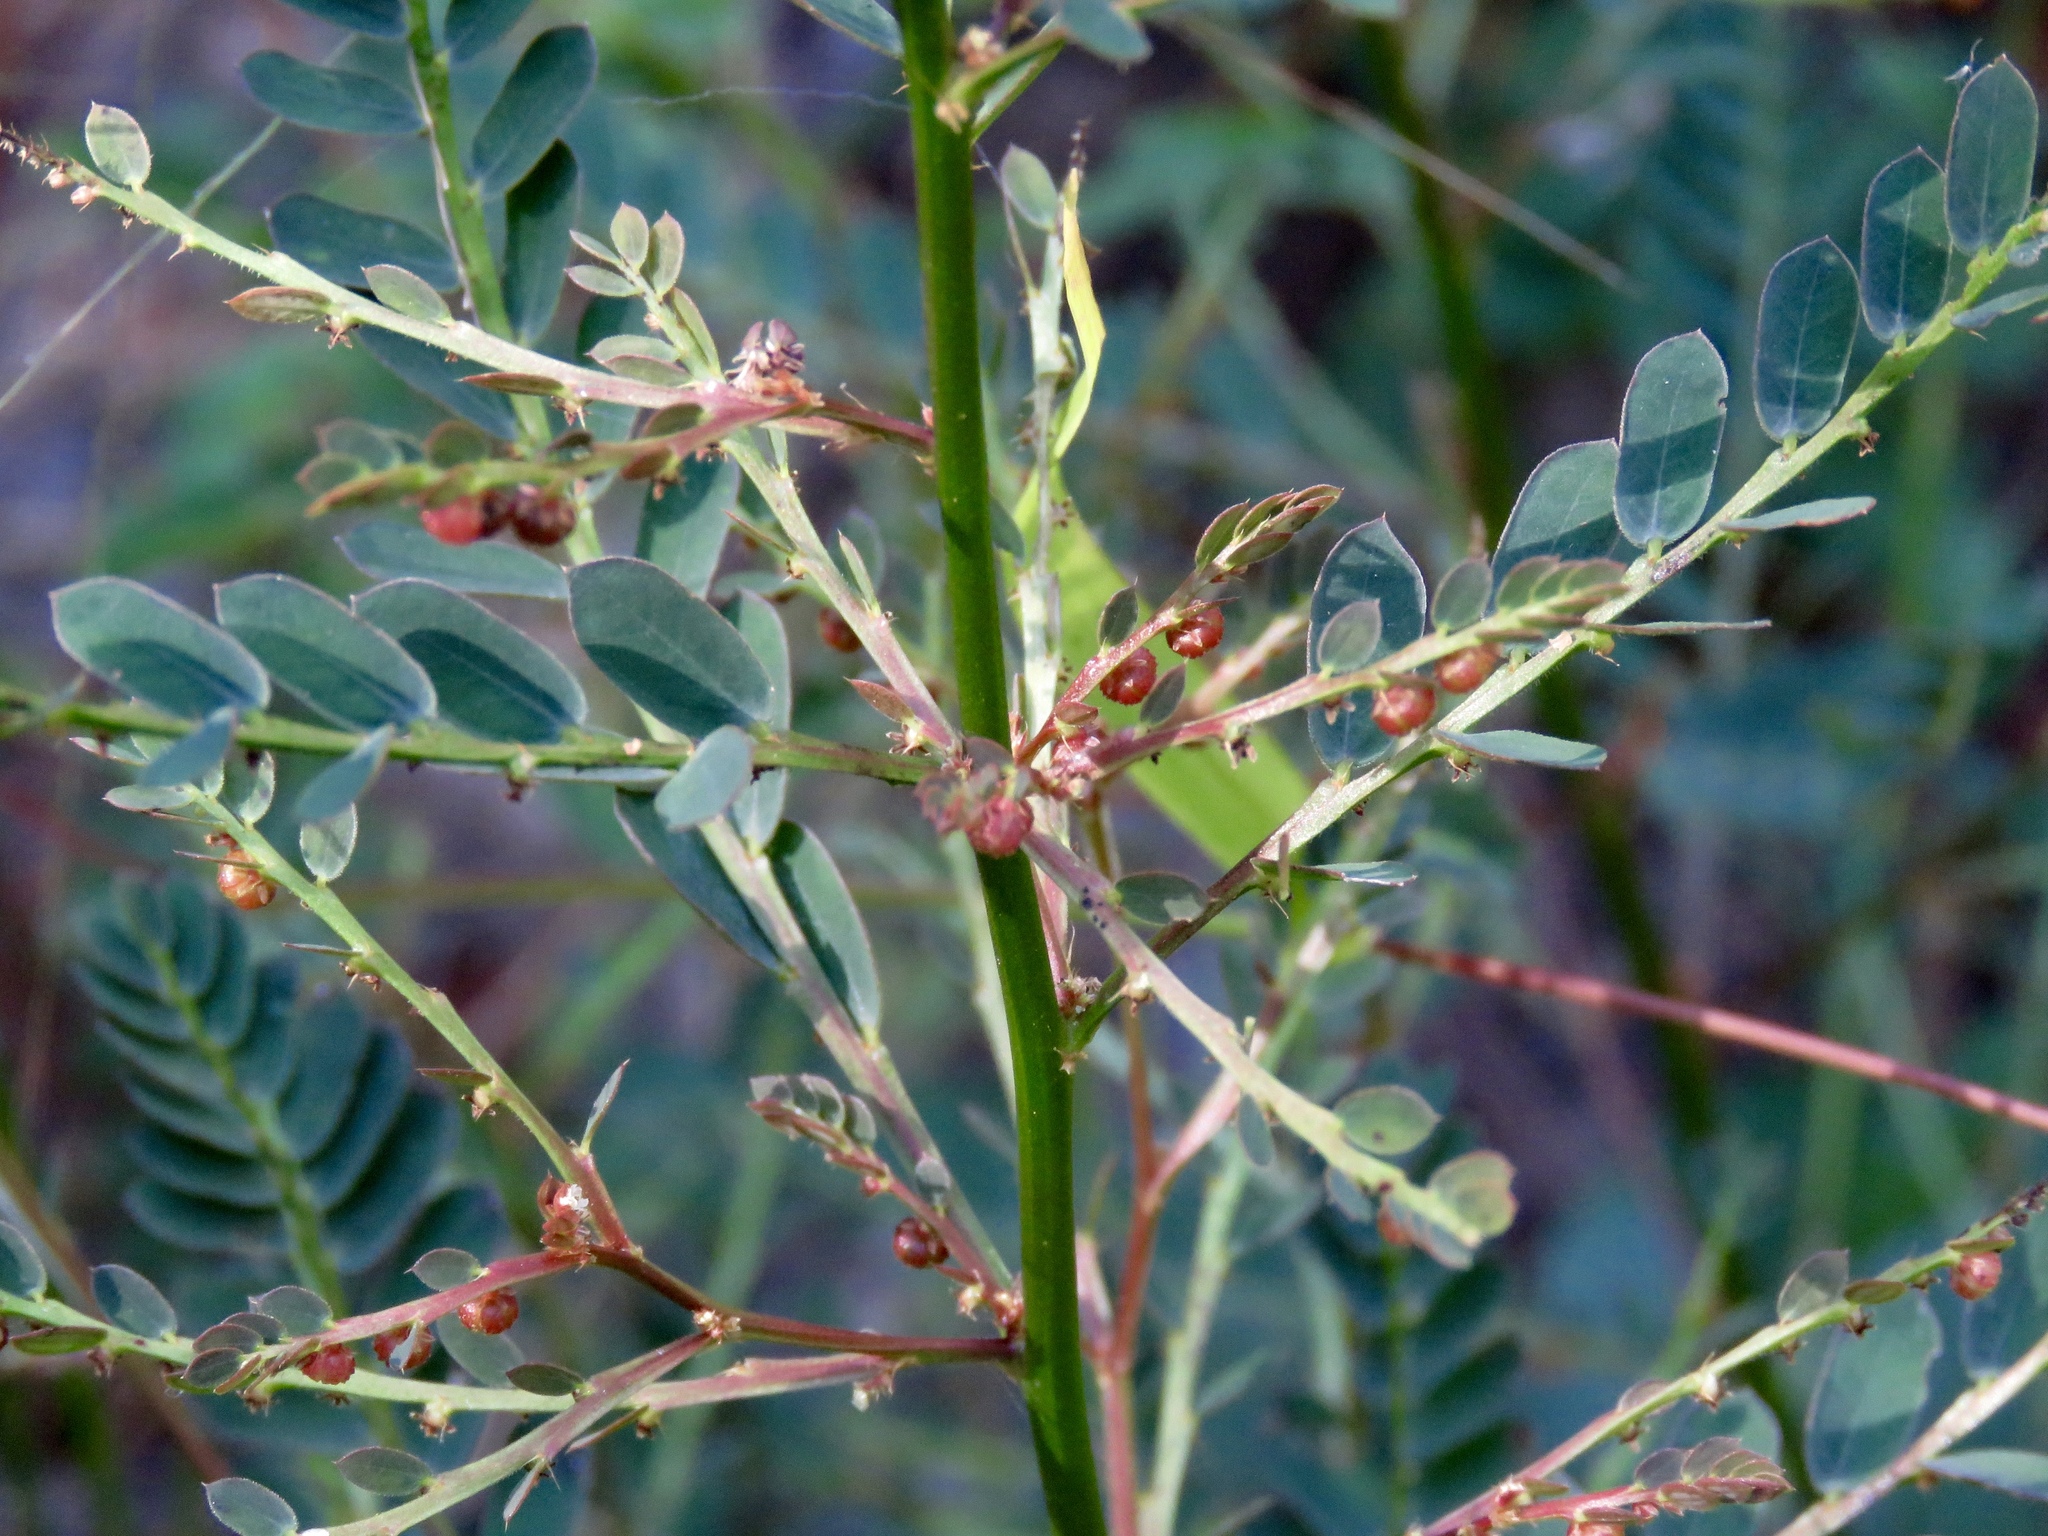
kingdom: Plantae
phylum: Tracheophyta
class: Magnoliopsida
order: Malpighiales
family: Phyllanthaceae
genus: Phyllanthus
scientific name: Phyllanthus urinaria
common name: Chamber bitter
